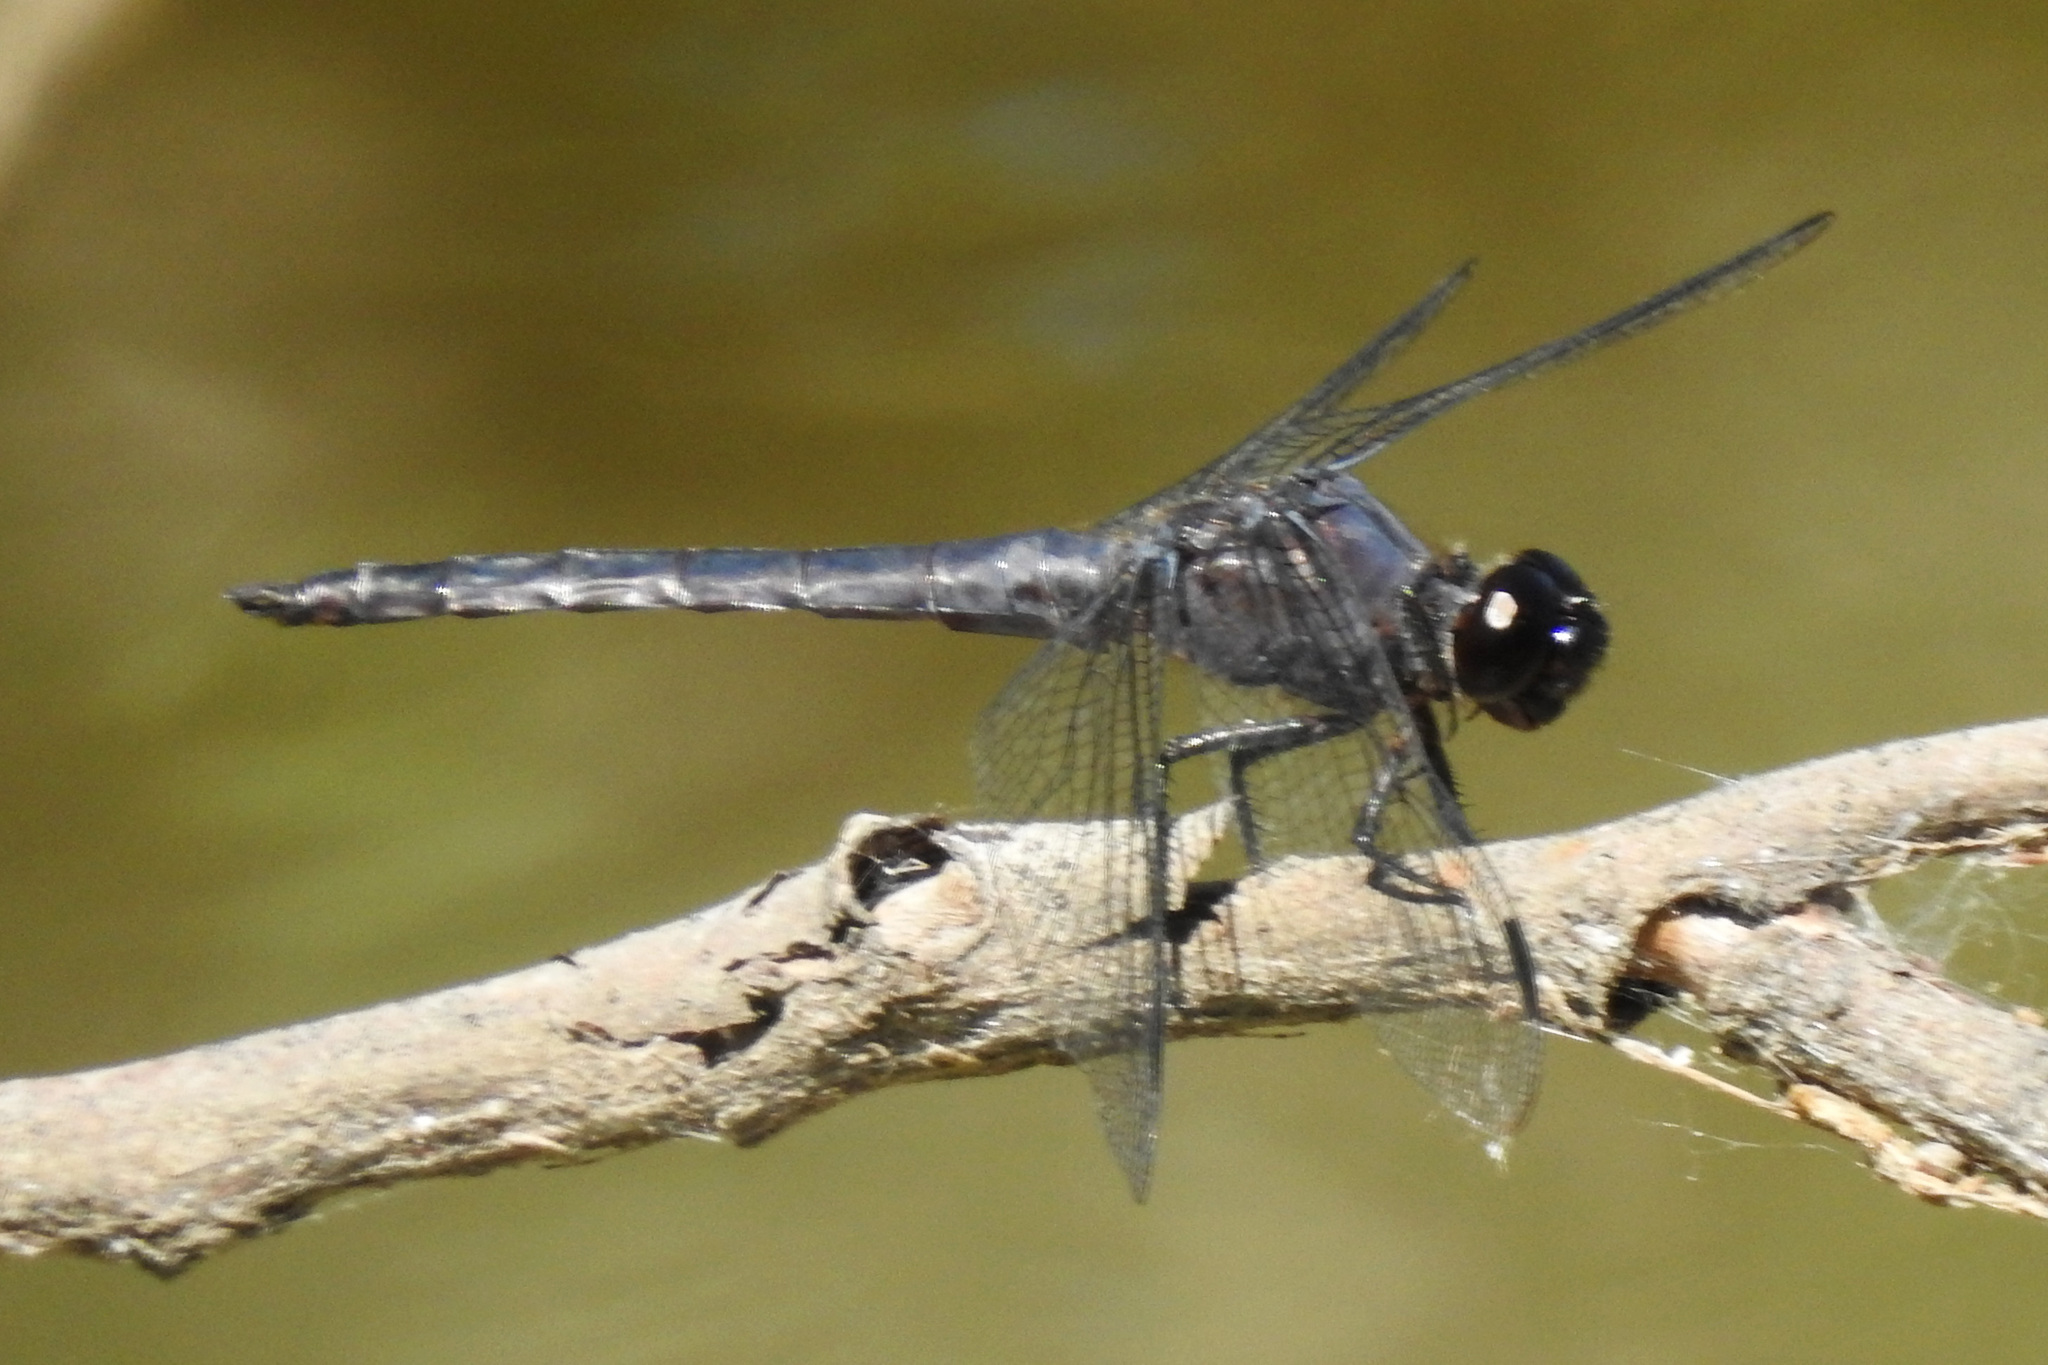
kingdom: Animalia
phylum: Arthropoda
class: Insecta
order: Odonata
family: Libellulidae
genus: Libellula
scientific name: Libellula incesta
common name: Slaty skimmer
